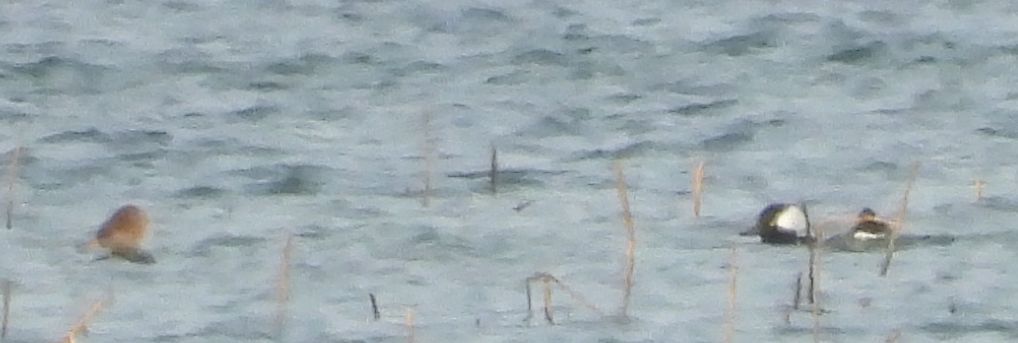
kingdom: Animalia
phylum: Chordata
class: Aves
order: Anseriformes
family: Anatidae
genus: Lophodytes
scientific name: Lophodytes cucullatus
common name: Hooded merganser
